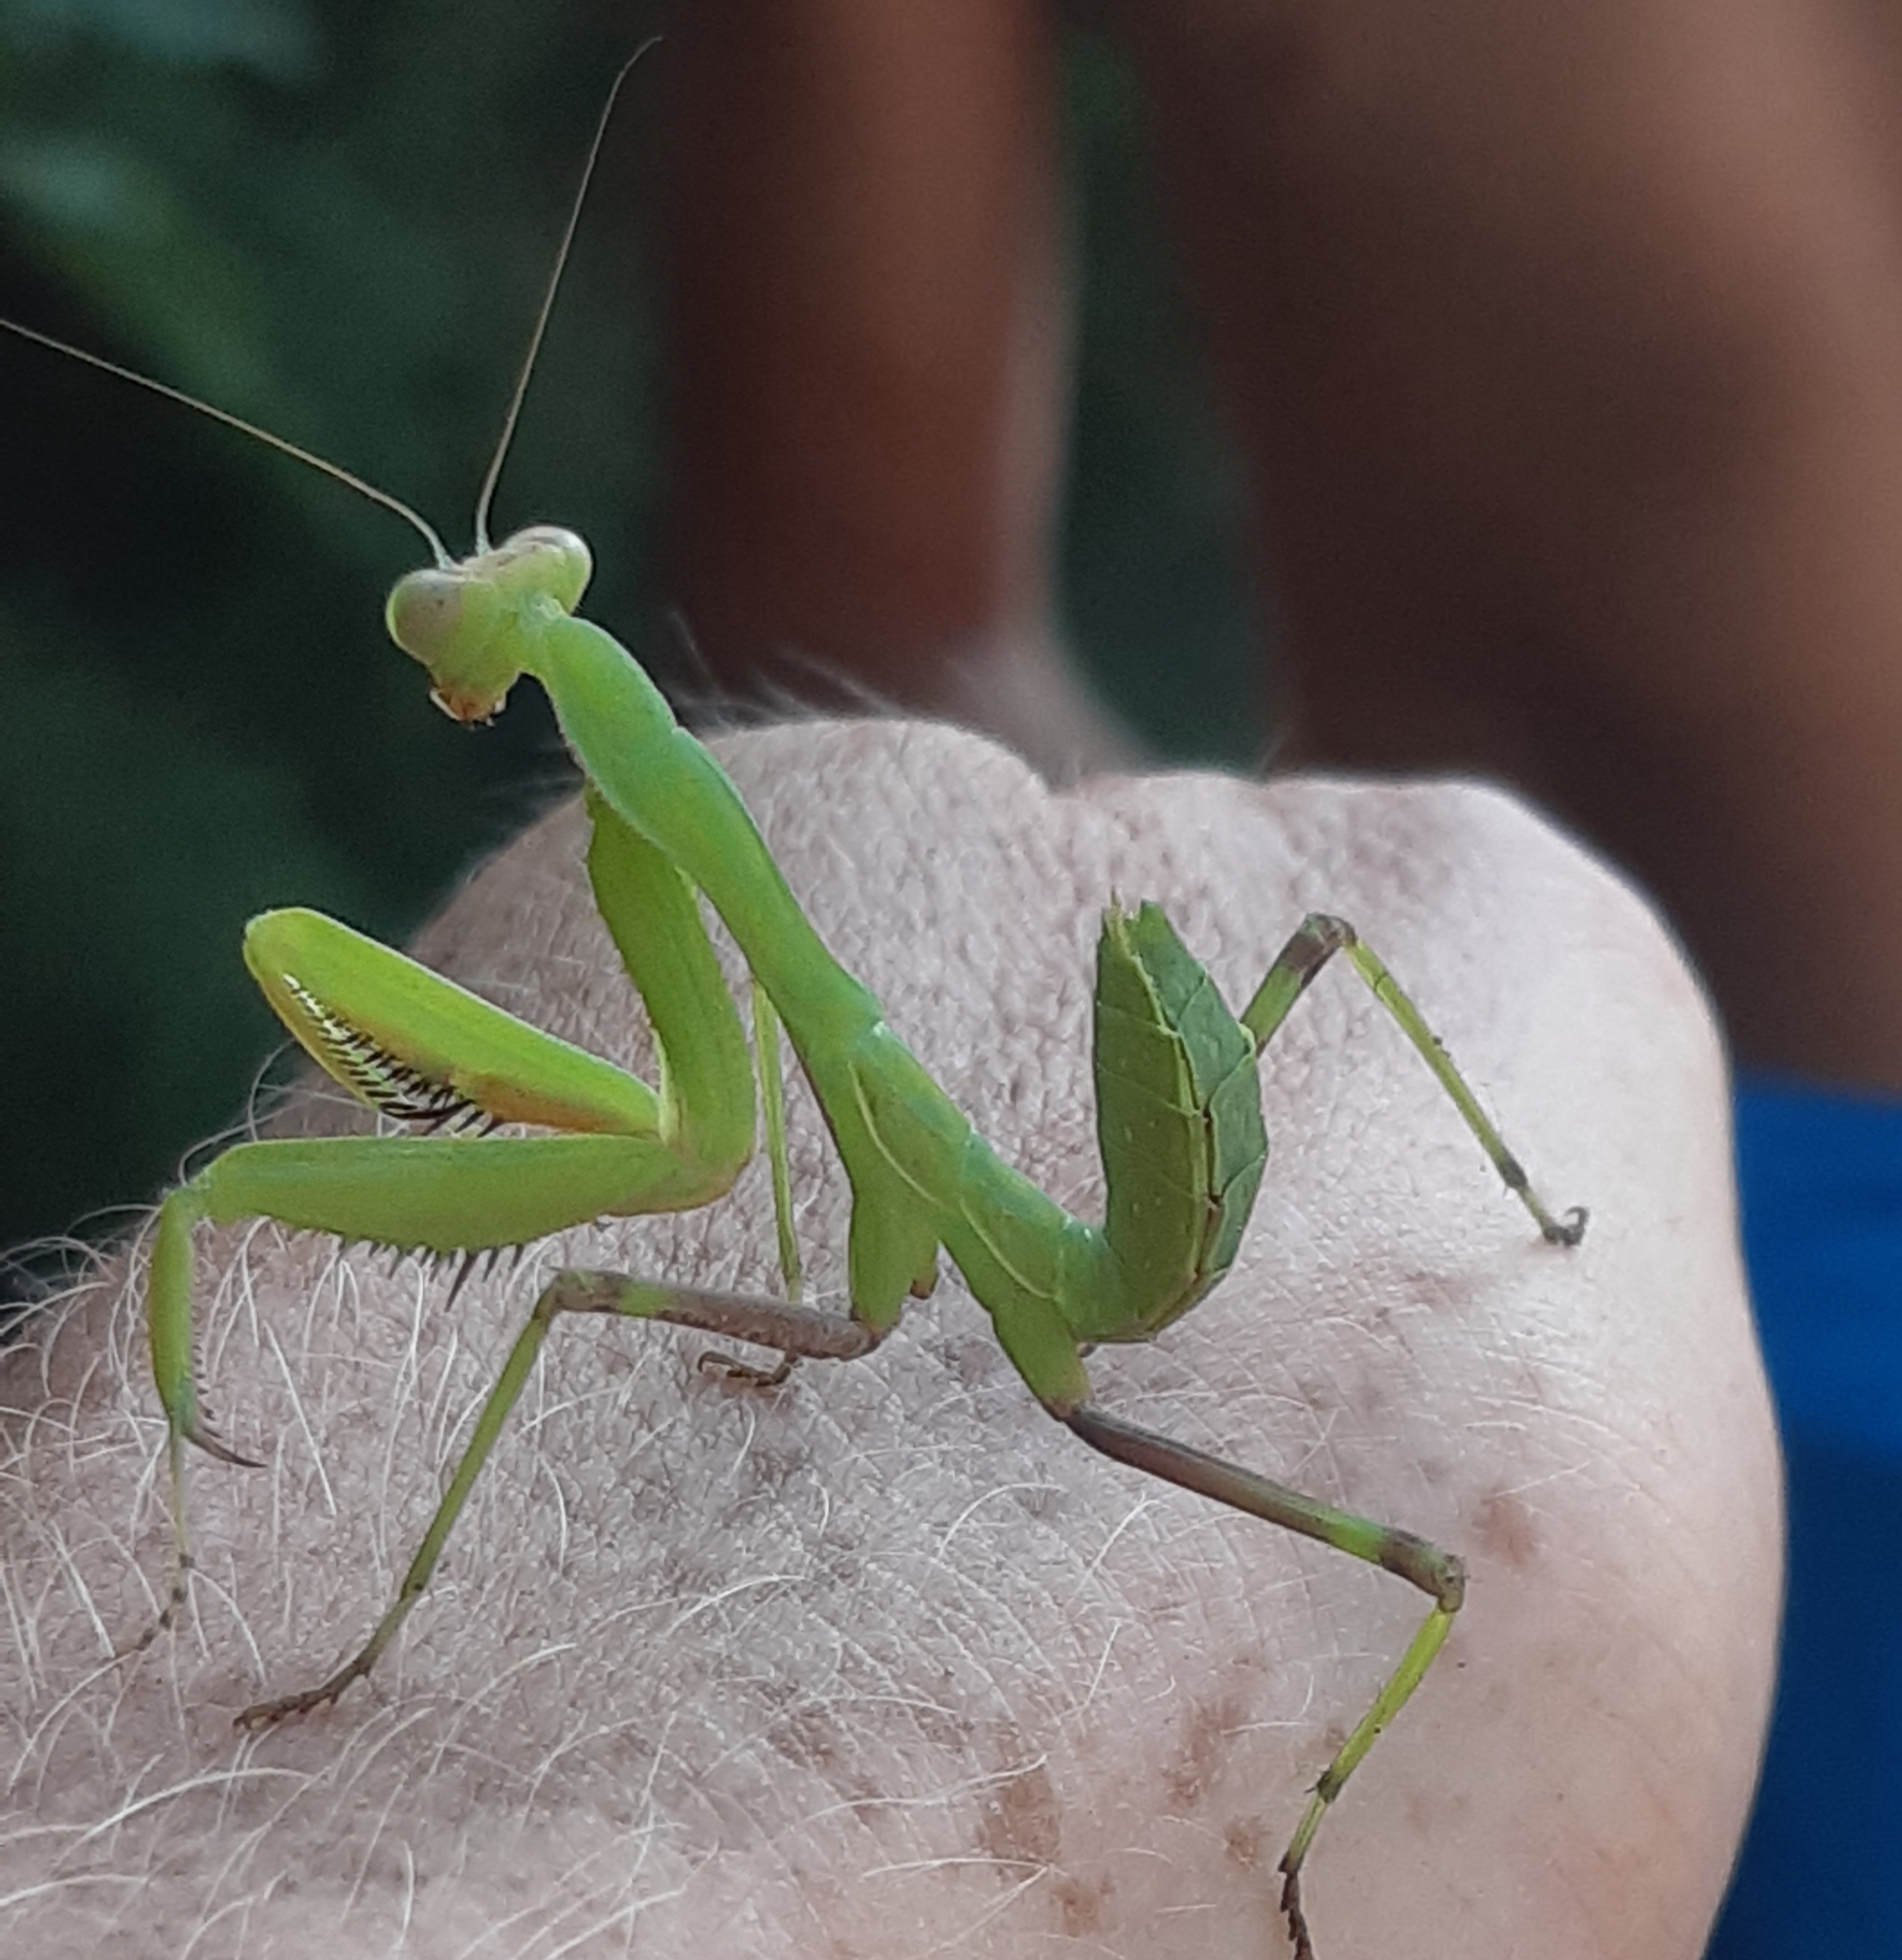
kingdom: Animalia
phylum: Arthropoda
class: Insecta
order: Mantodea
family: Mantidae
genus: Sphodromantis
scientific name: Sphodromantis viridis
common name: Giant african mantis
